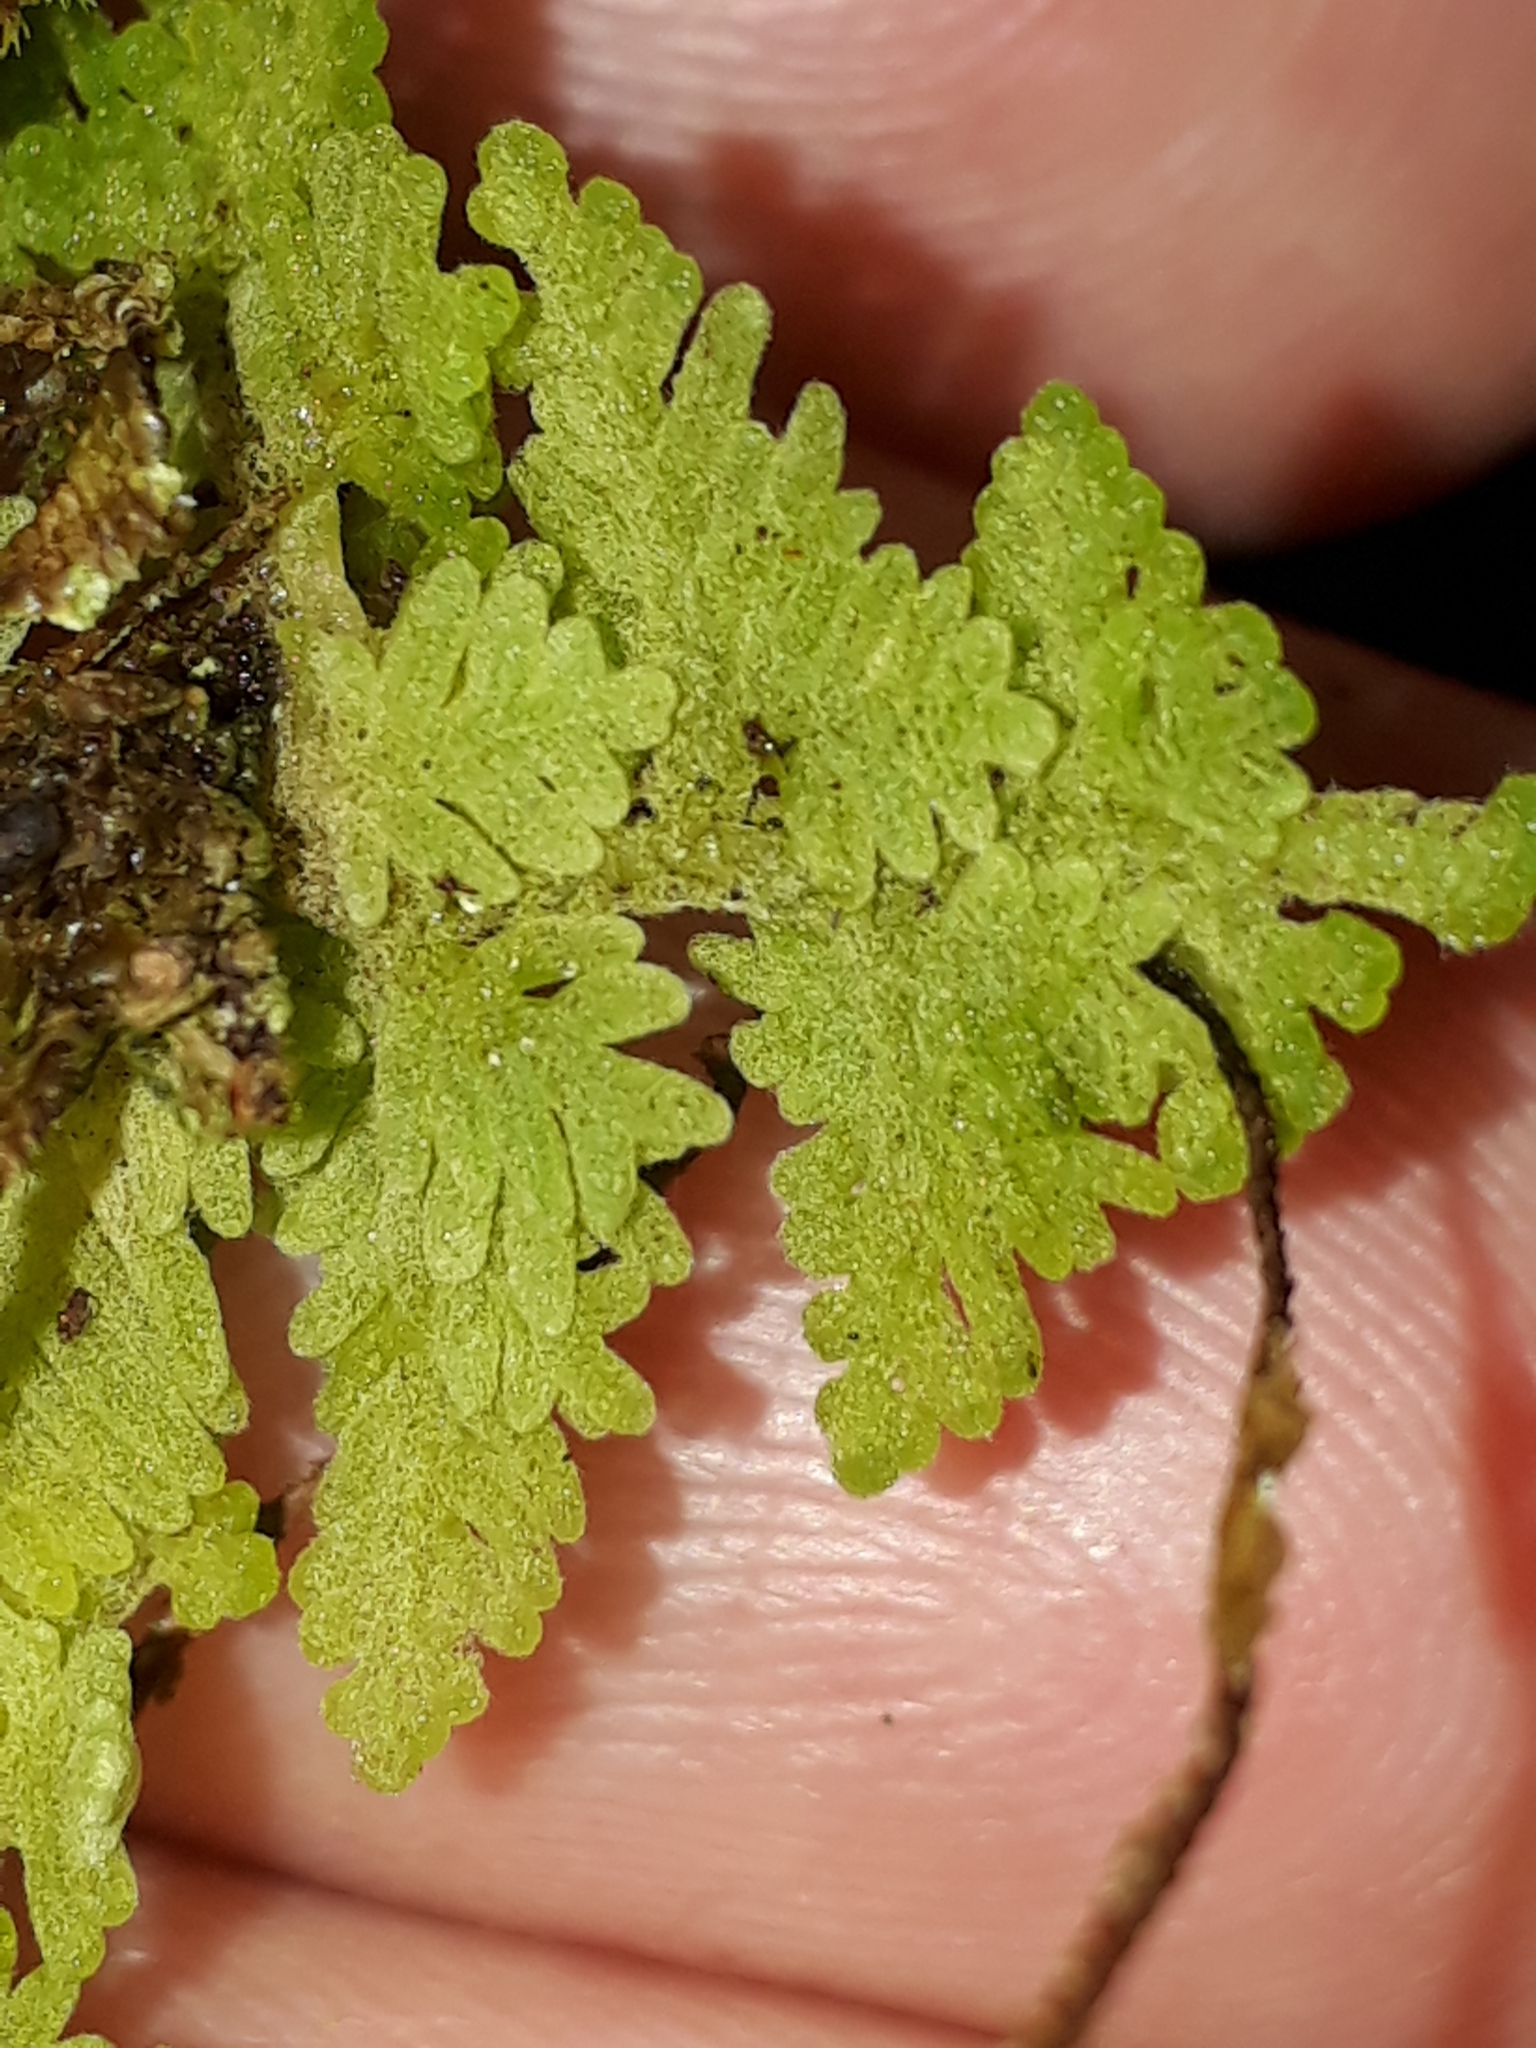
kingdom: Plantae
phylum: Marchantiophyta
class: Jungermanniopsida
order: Jungermanniales
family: Trichocoleaceae
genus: Trichocolea
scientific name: Trichocolea mollissima
